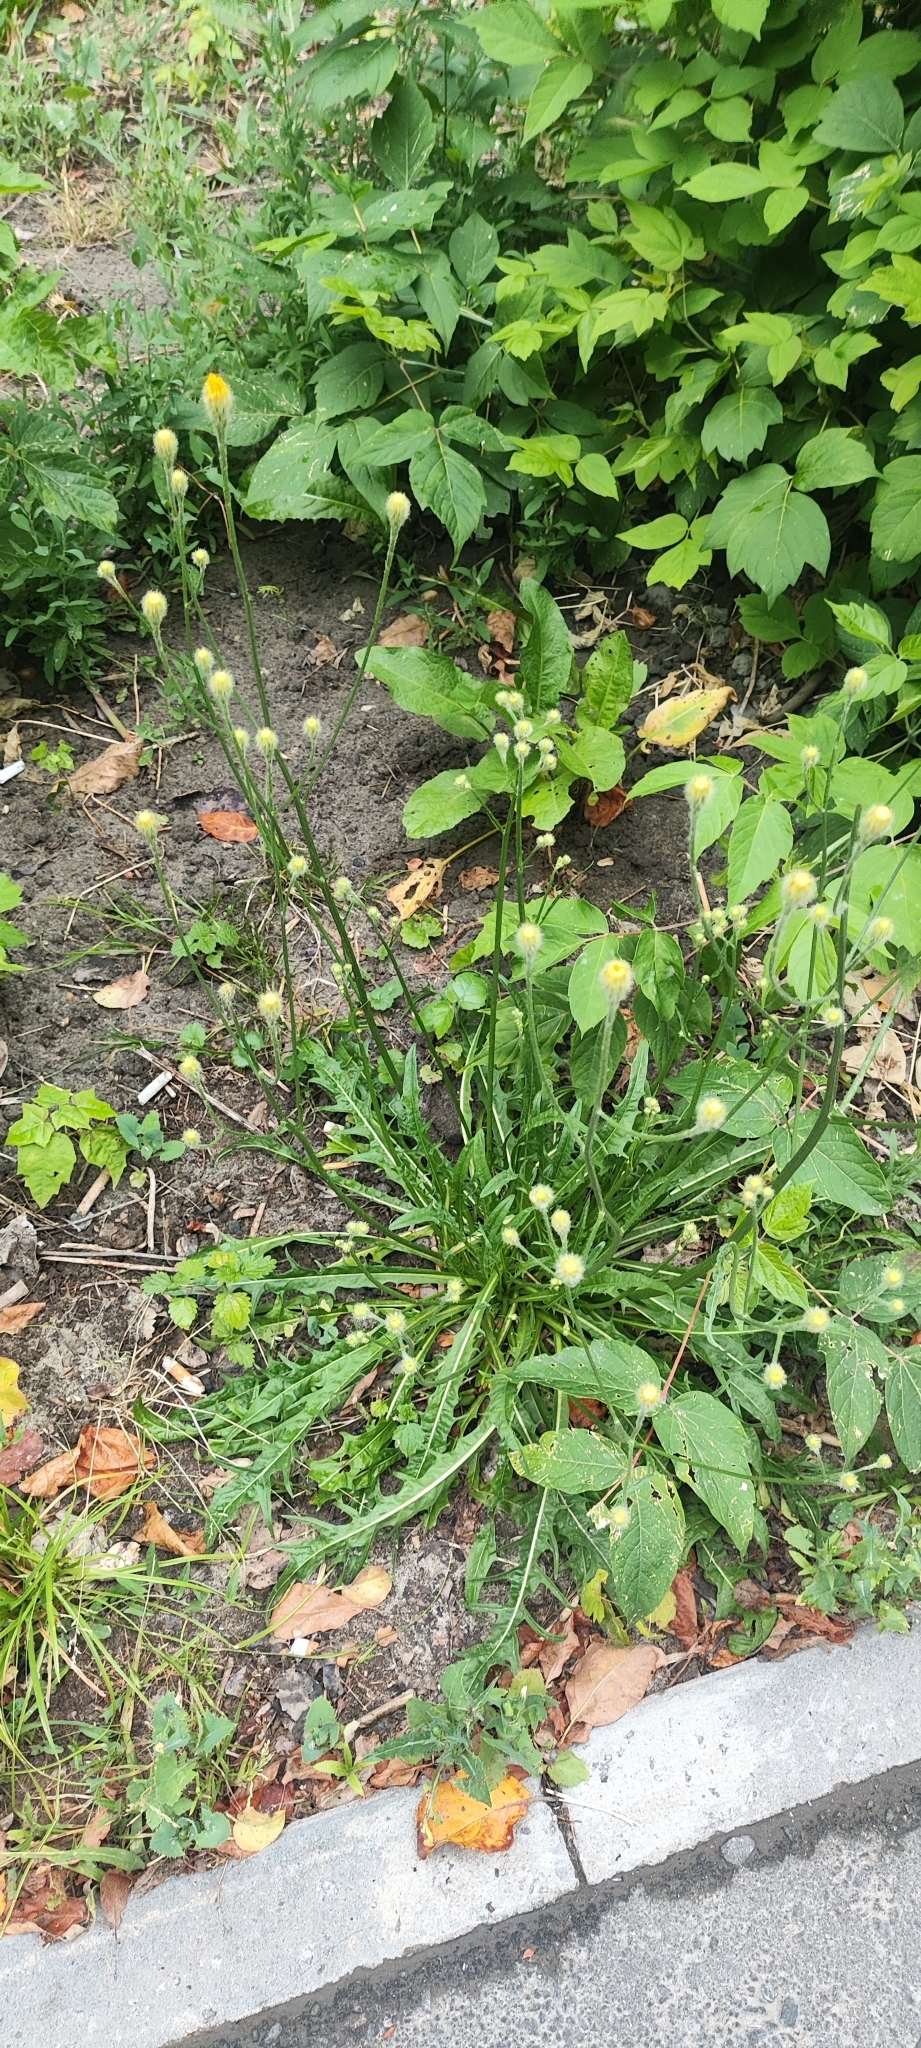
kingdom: Plantae
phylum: Tracheophyta
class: Magnoliopsida
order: Asterales
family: Asteraceae
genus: Scorzoneroides
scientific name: Scorzoneroides autumnalis
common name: Autumn hawkbit
